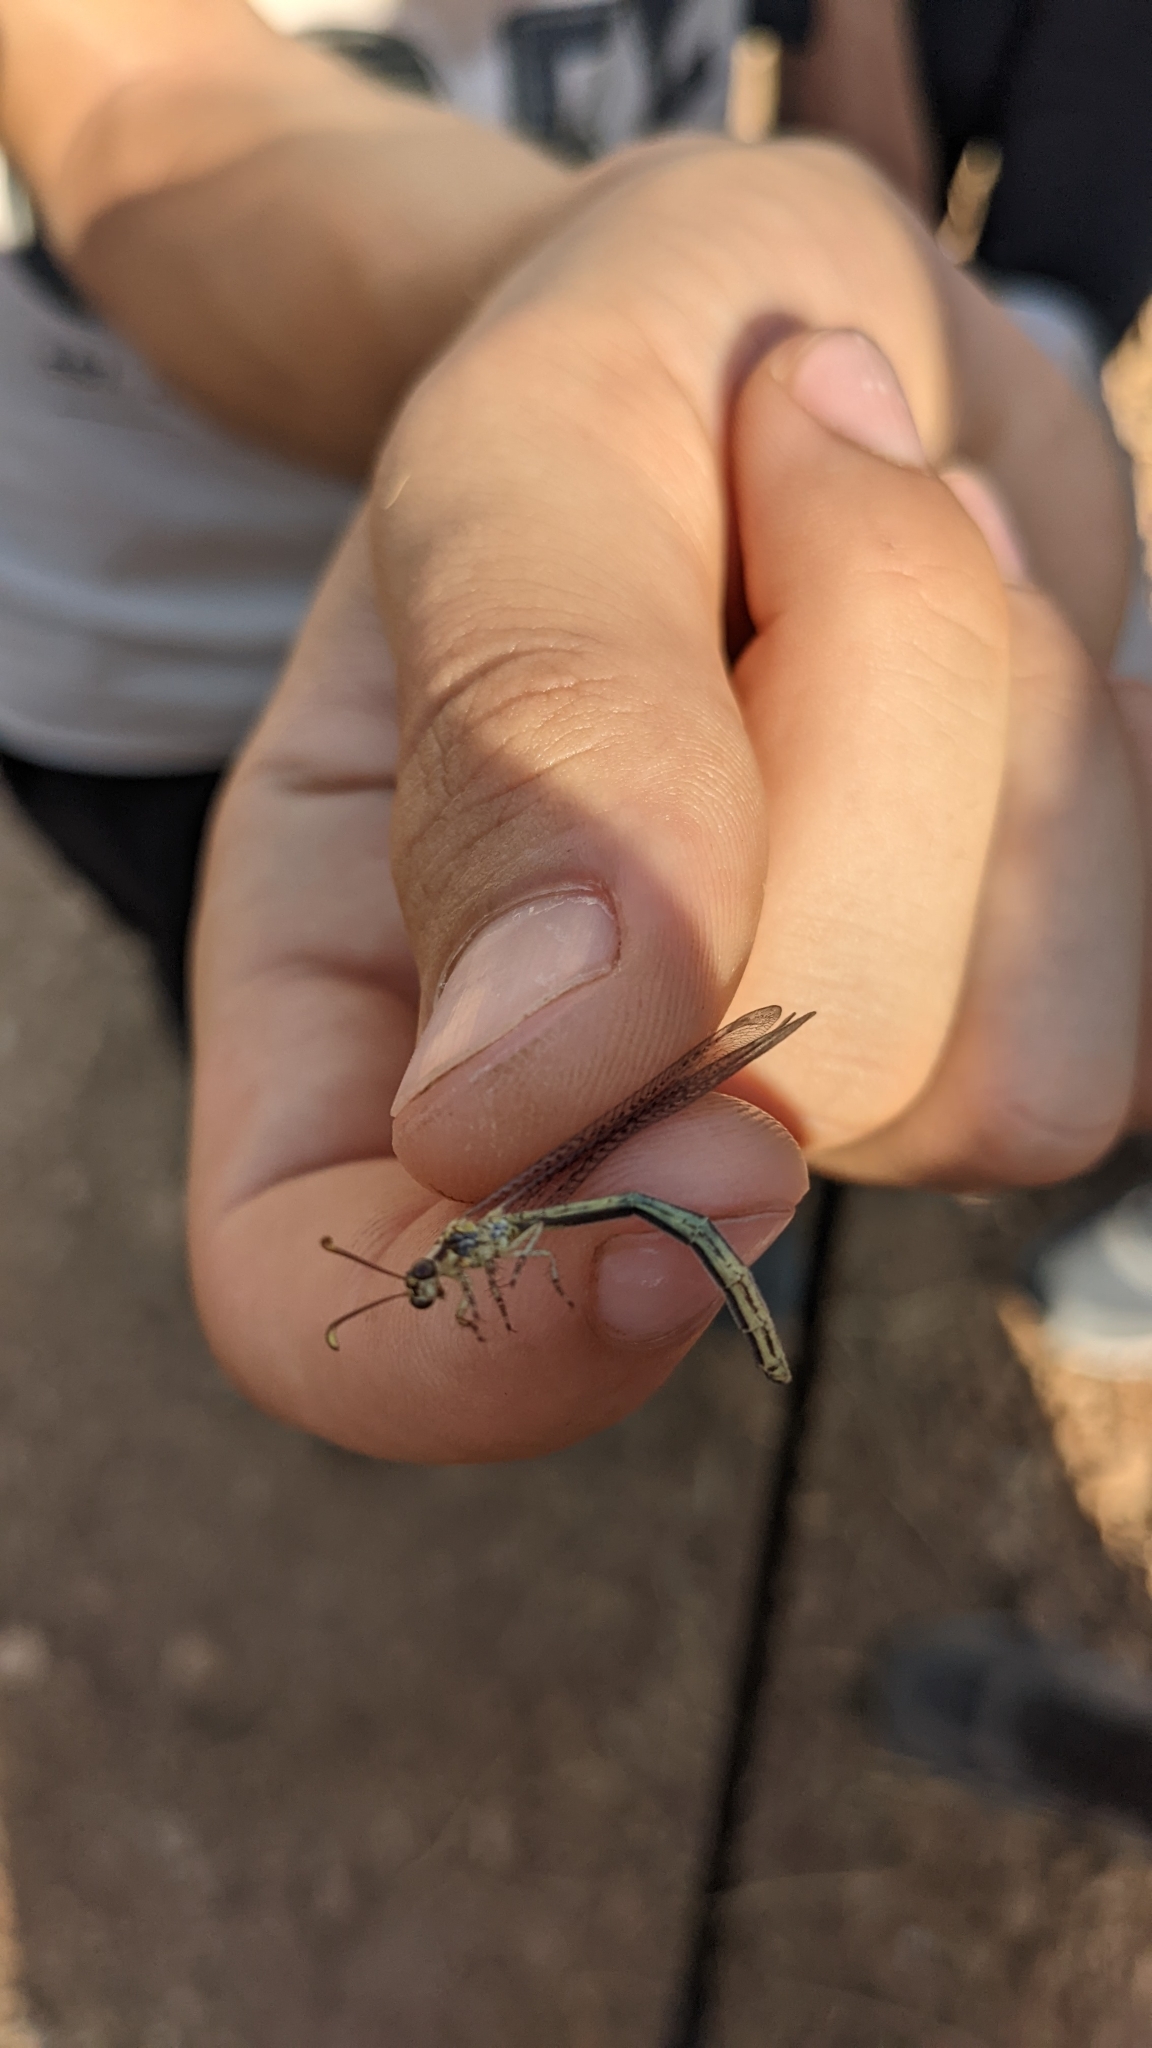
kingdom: Animalia
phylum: Arthropoda
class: Insecta
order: Neuroptera
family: Myrmeleontidae
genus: Macronemurus
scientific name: Macronemurus appendiculatus
